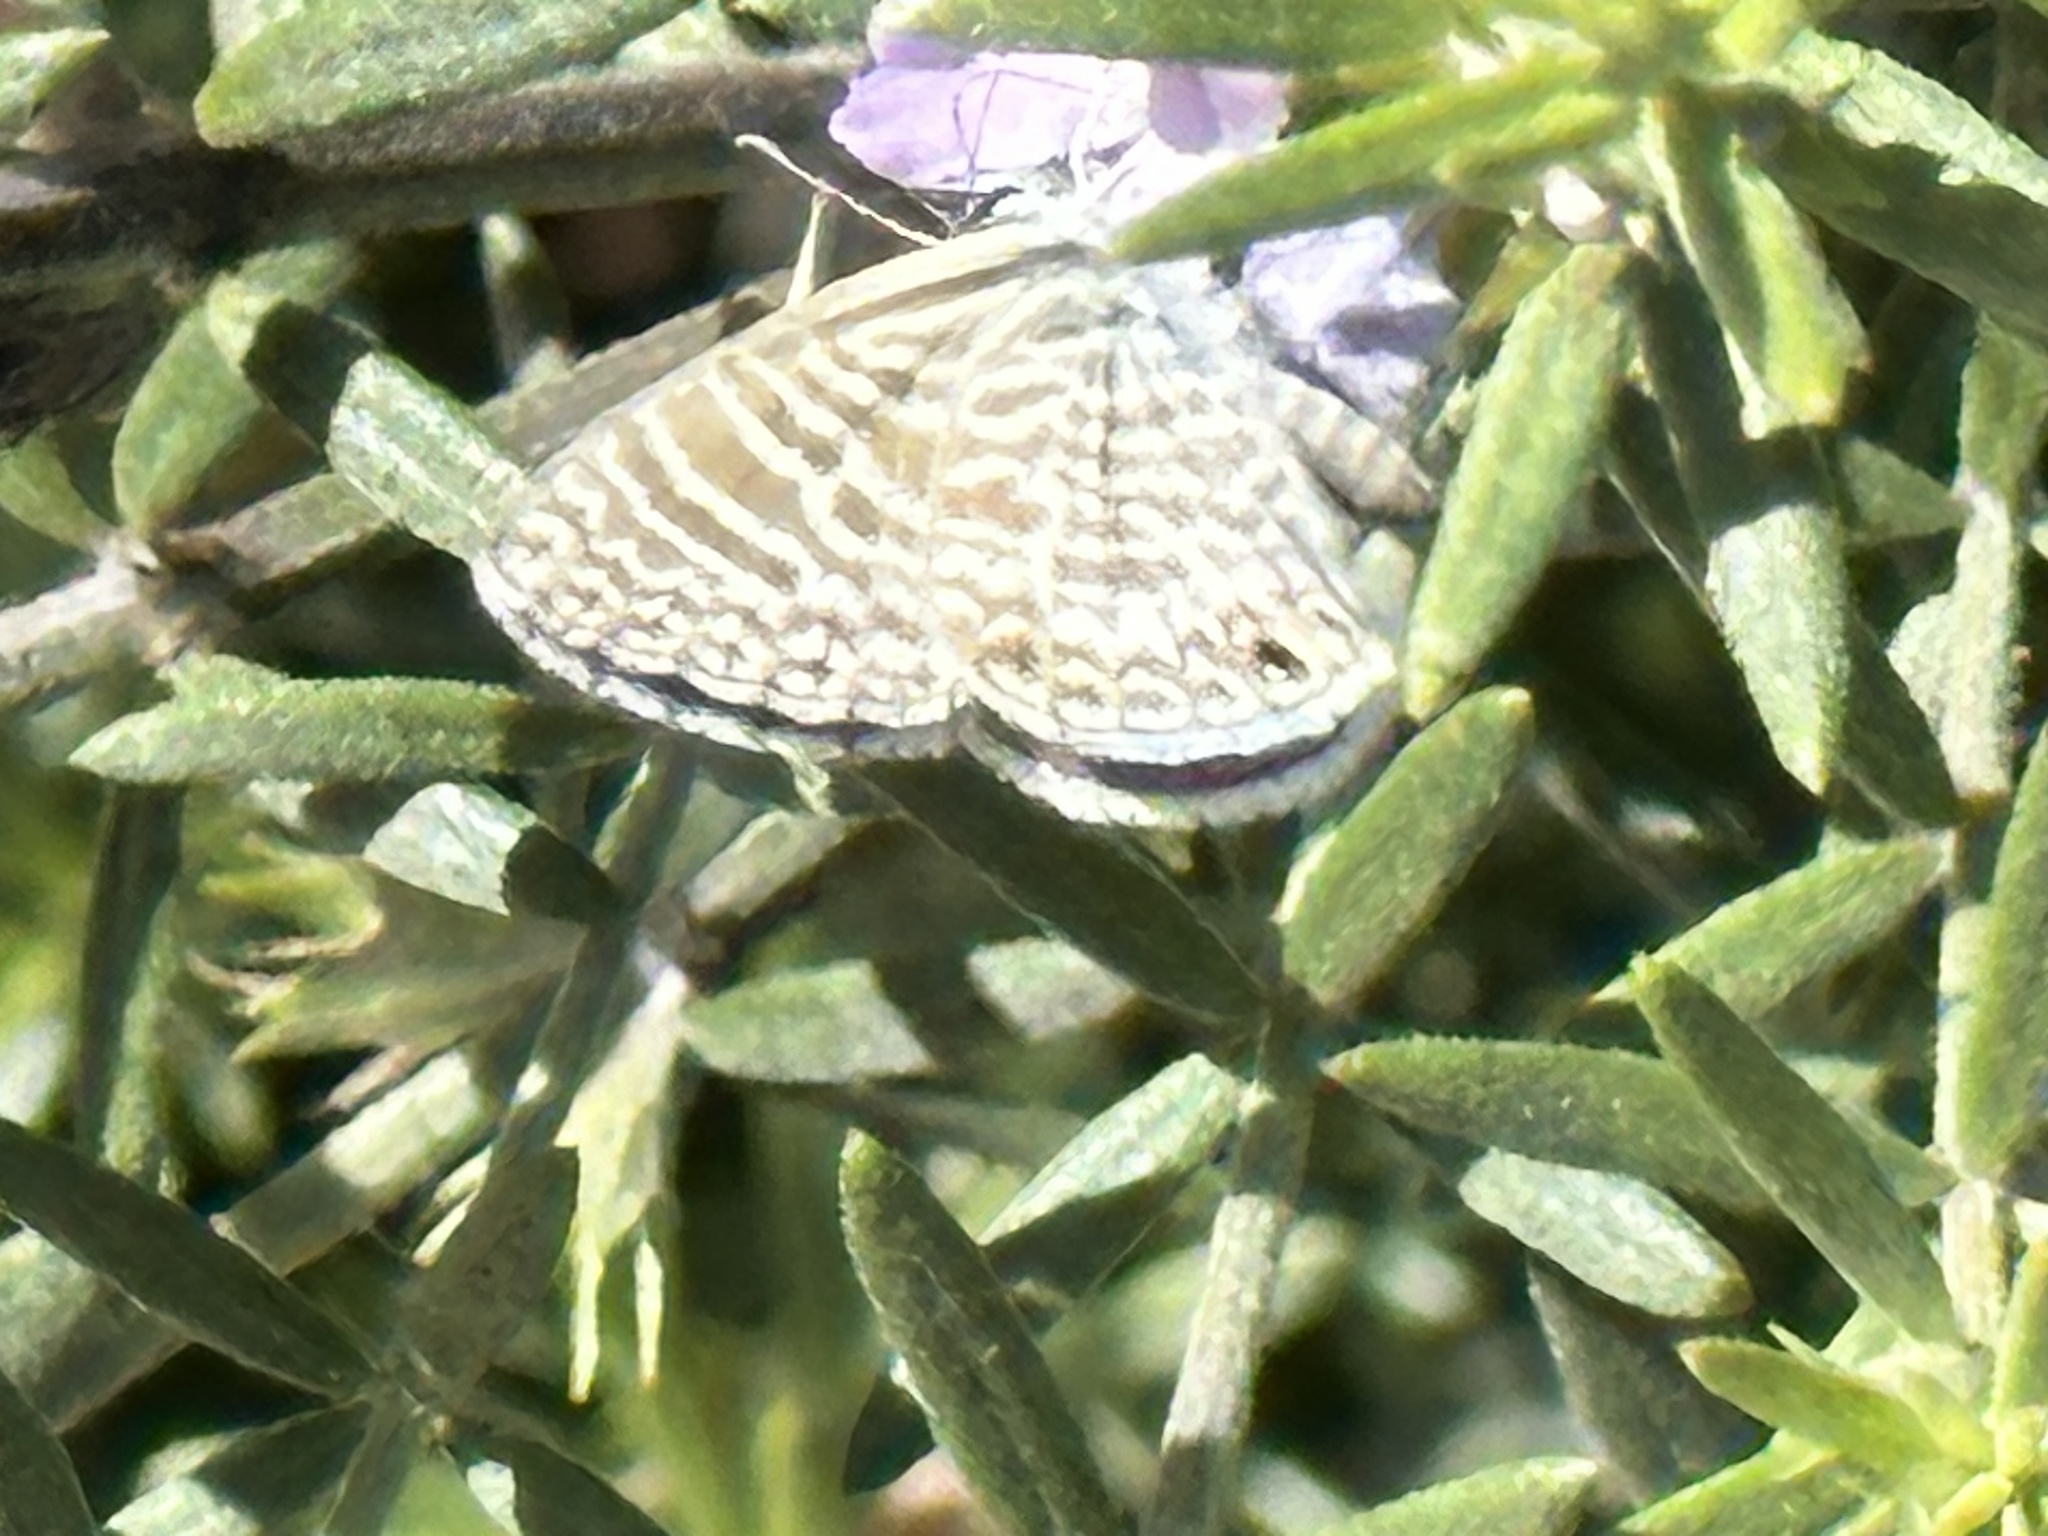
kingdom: Animalia
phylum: Arthropoda
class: Insecta
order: Lepidoptera
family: Lycaenidae
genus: Leptotes
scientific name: Leptotes marina
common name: Marine blue
